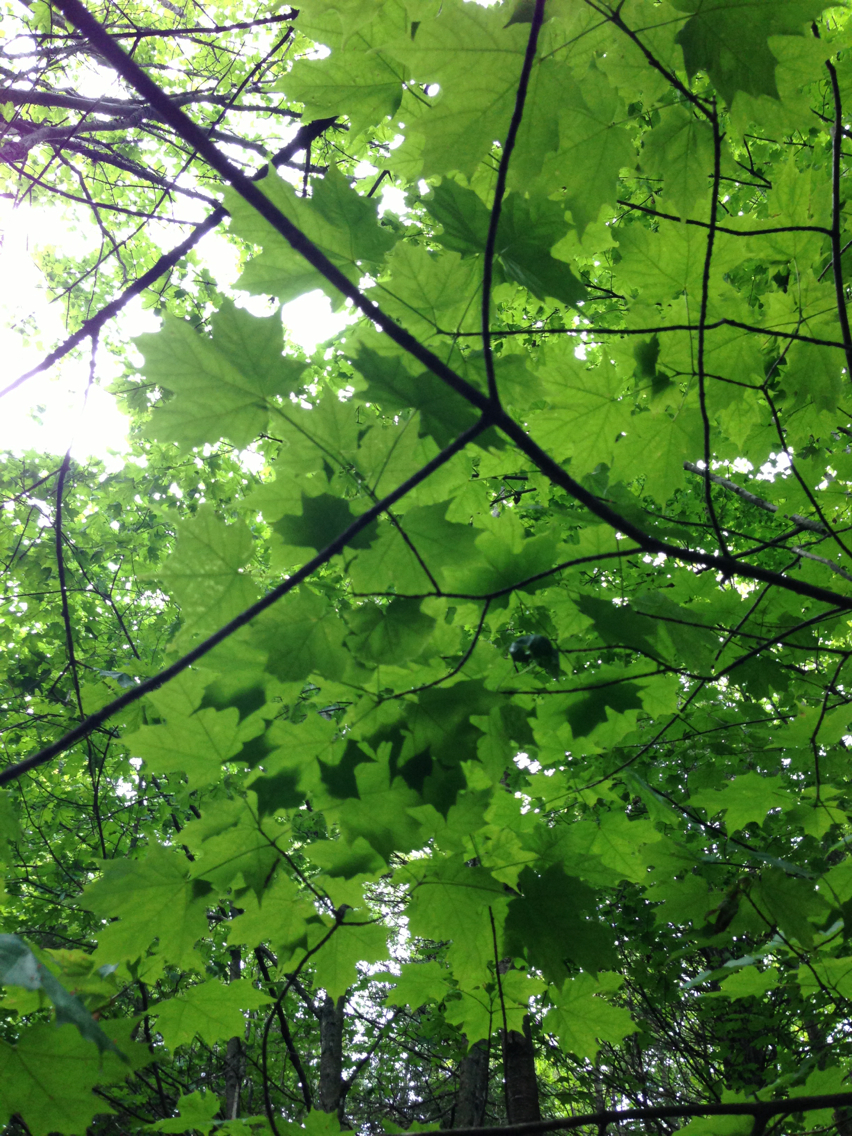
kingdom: Plantae
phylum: Tracheophyta
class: Magnoliopsida
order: Sapindales
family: Sapindaceae
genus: Acer
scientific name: Acer saccharum
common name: Sugar maple
